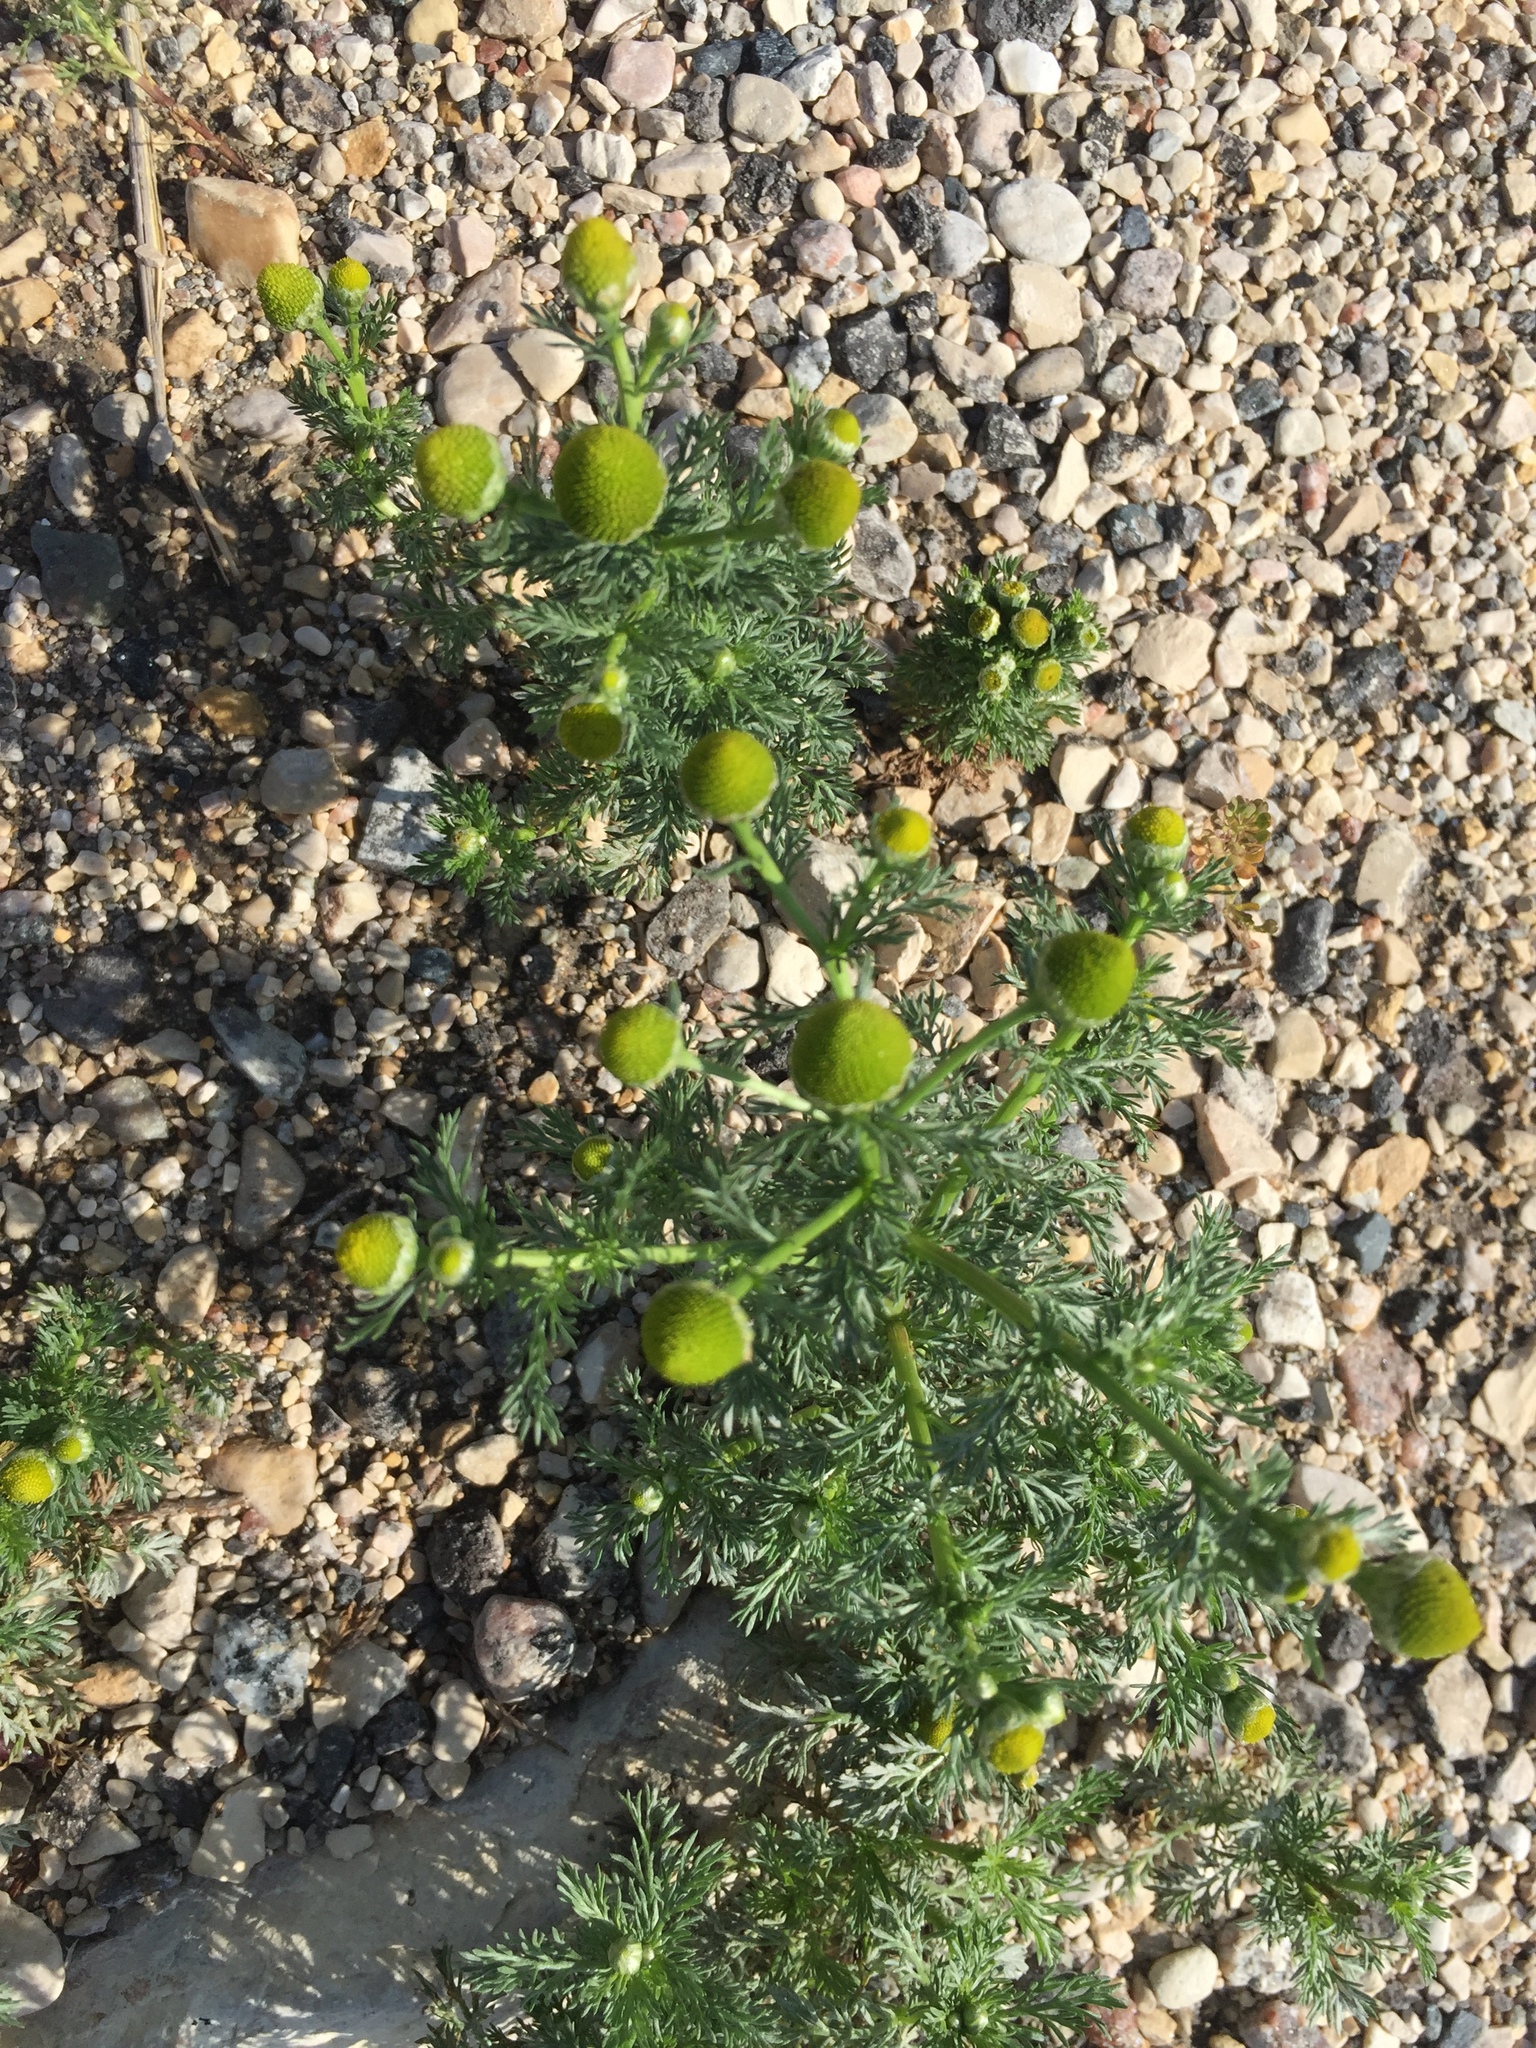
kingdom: Plantae
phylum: Tracheophyta
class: Magnoliopsida
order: Asterales
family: Asteraceae
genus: Matricaria
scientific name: Matricaria discoidea
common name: Disc mayweed
